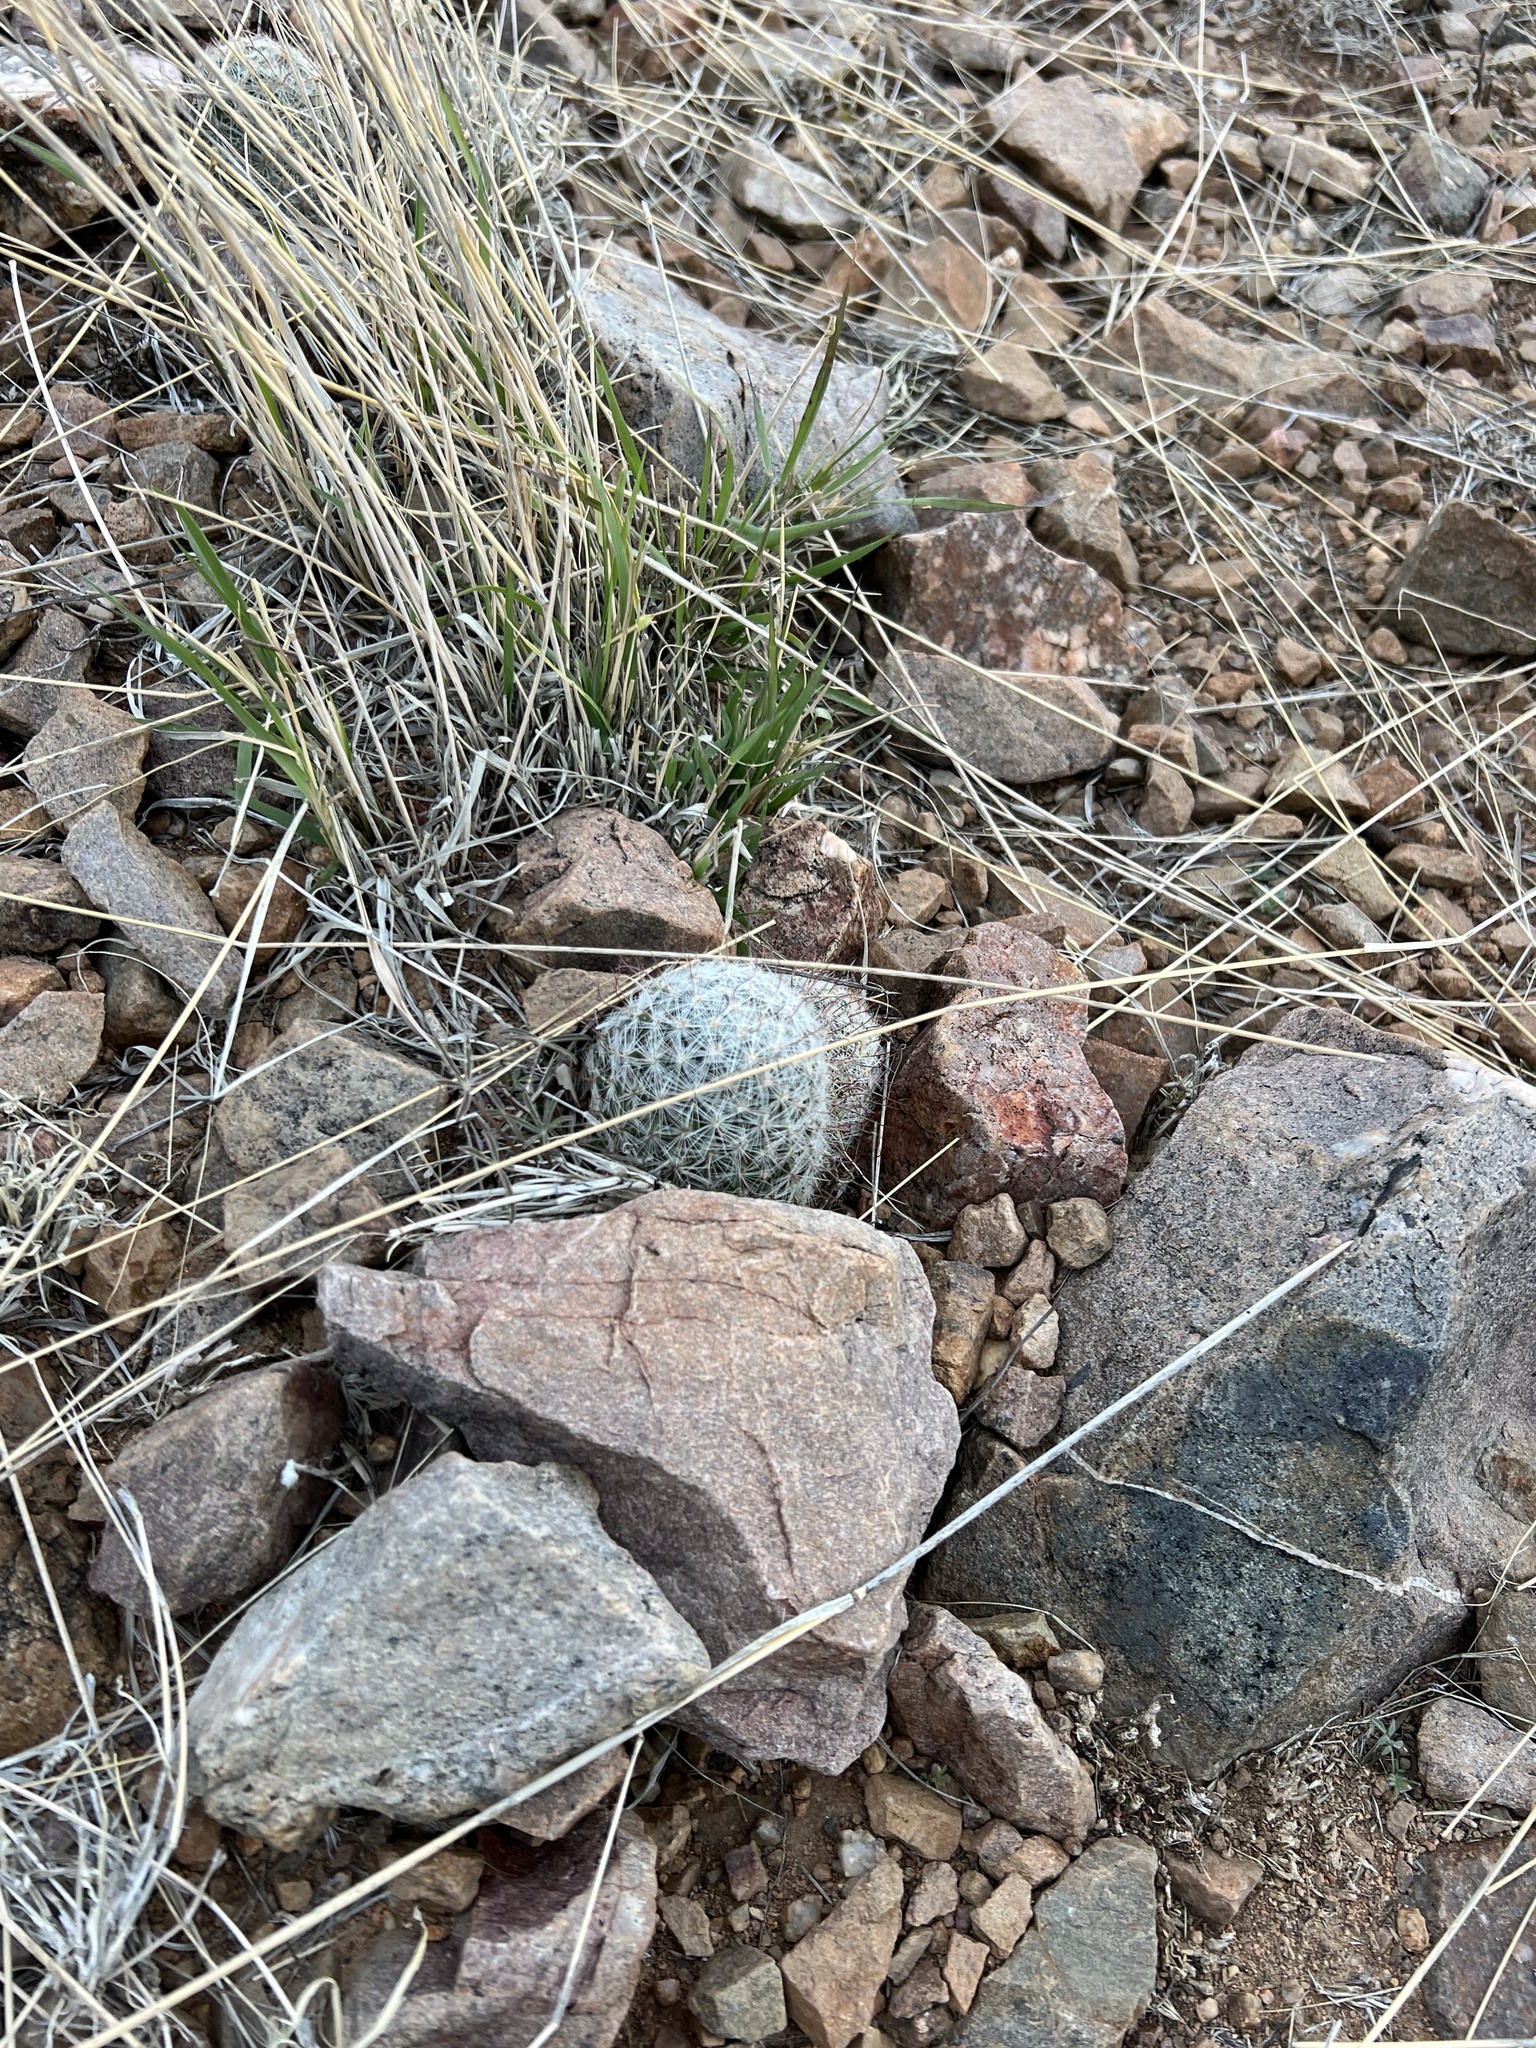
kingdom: Plantae
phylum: Tracheophyta
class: Magnoliopsida
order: Caryophyllales
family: Cactaceae
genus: Cochemiea
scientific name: Cochemiea grahamii
